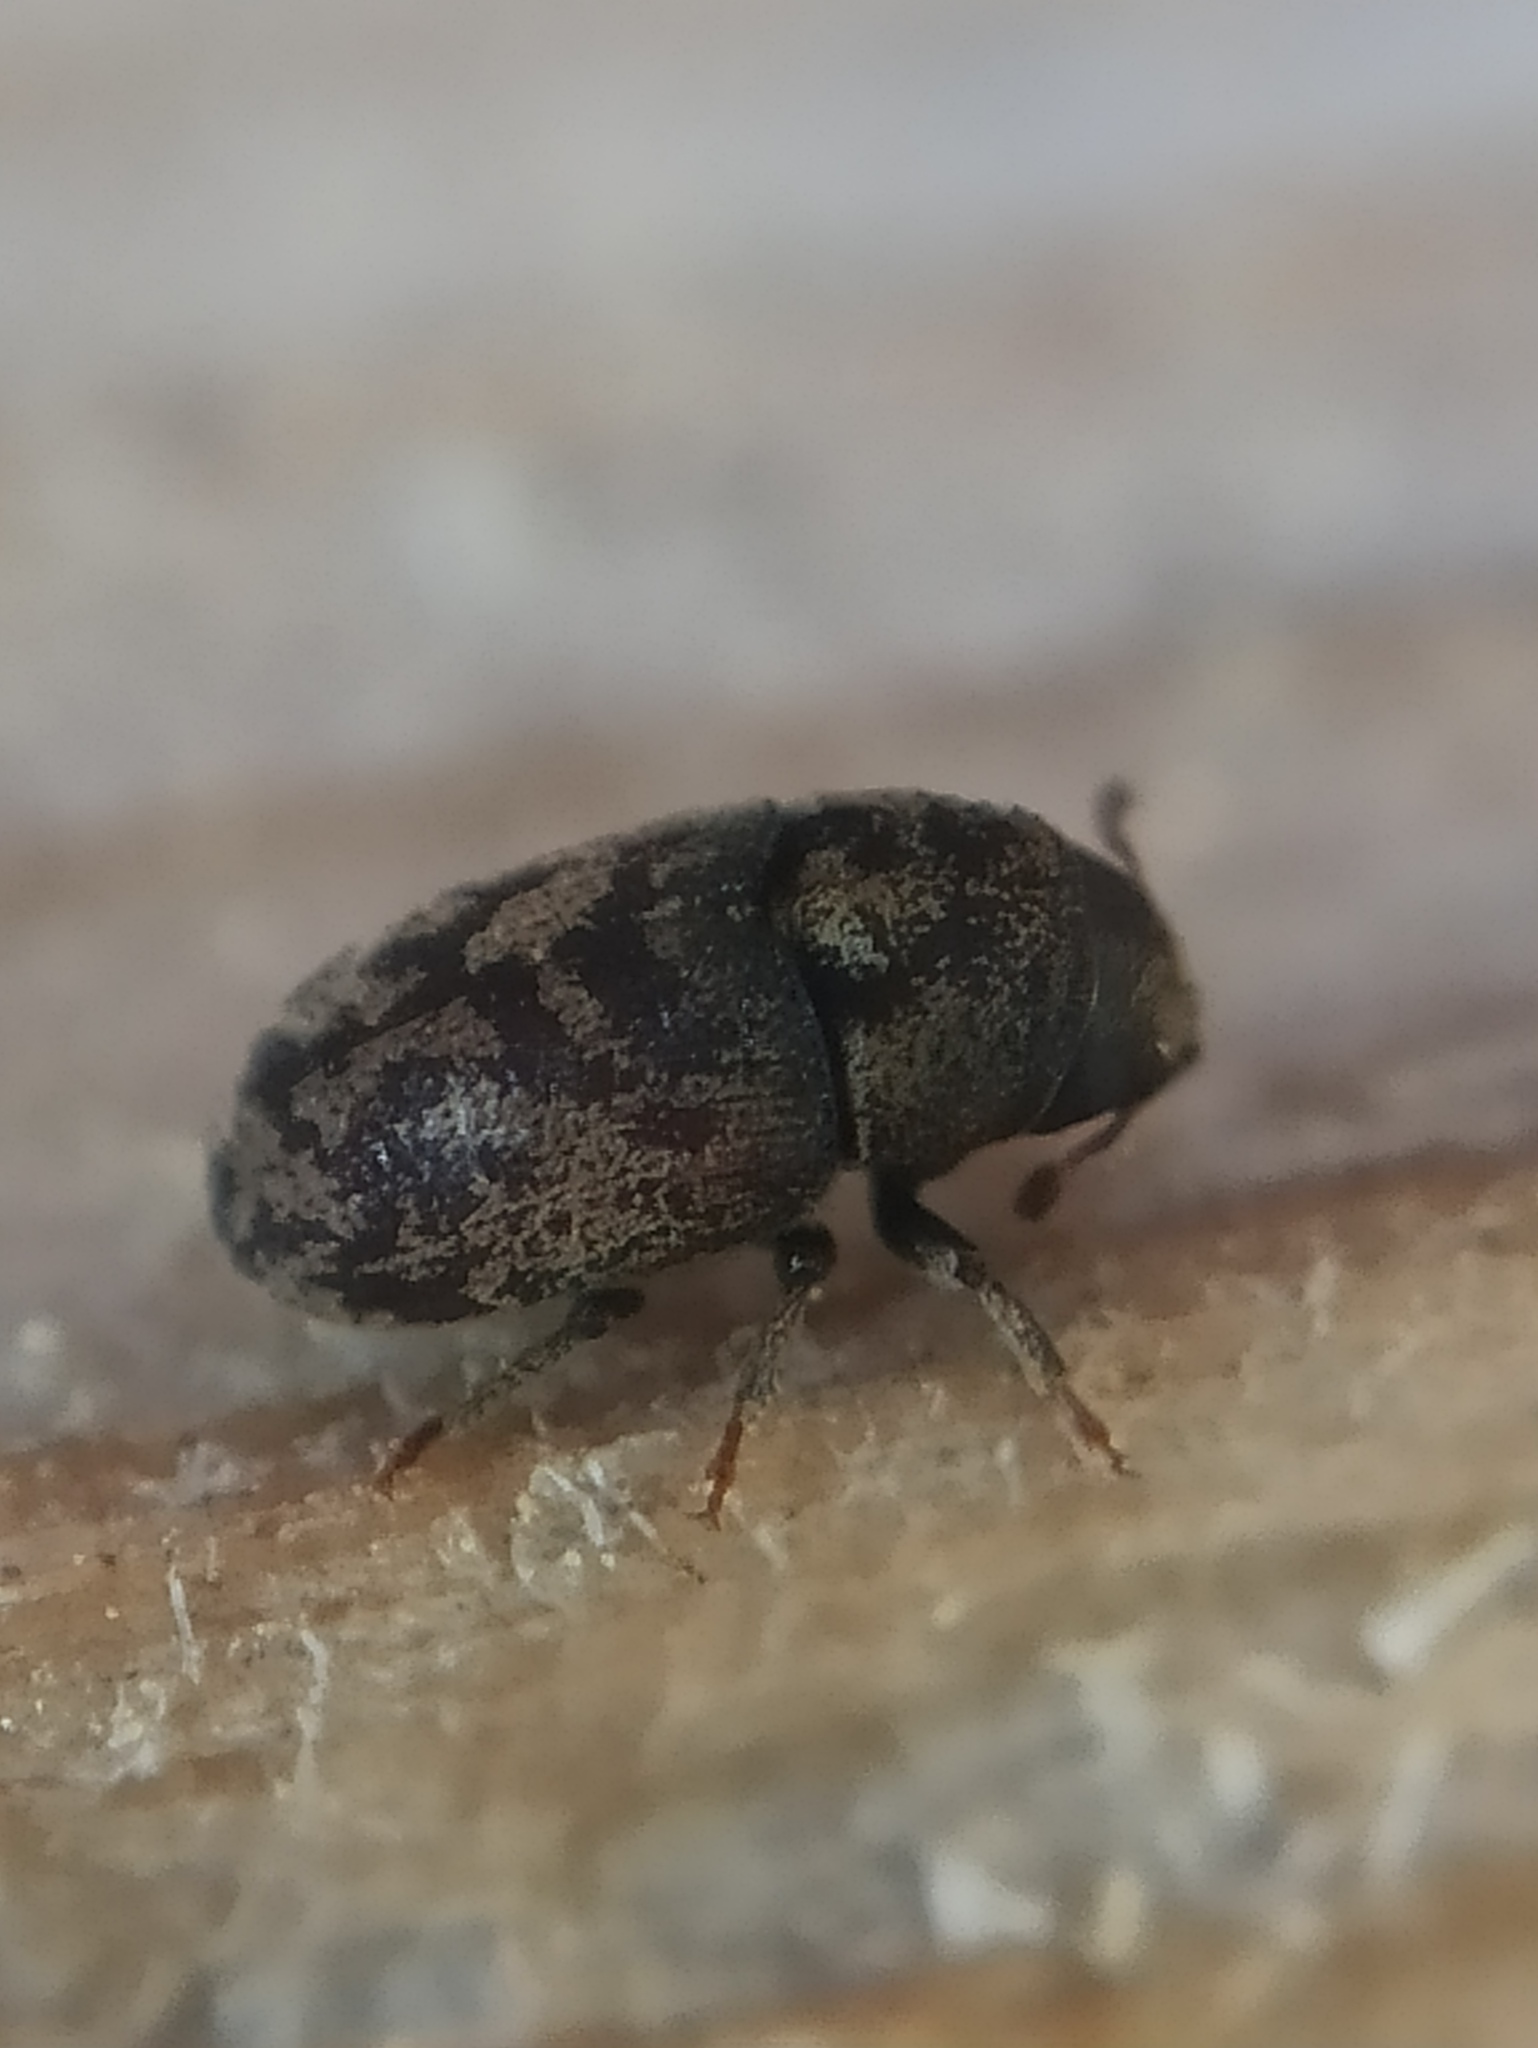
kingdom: Animalia
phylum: Arthropoda
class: Insecta
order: Coleoptera
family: Curculionidae
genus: Hylesinus
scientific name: Hylesinus varius
